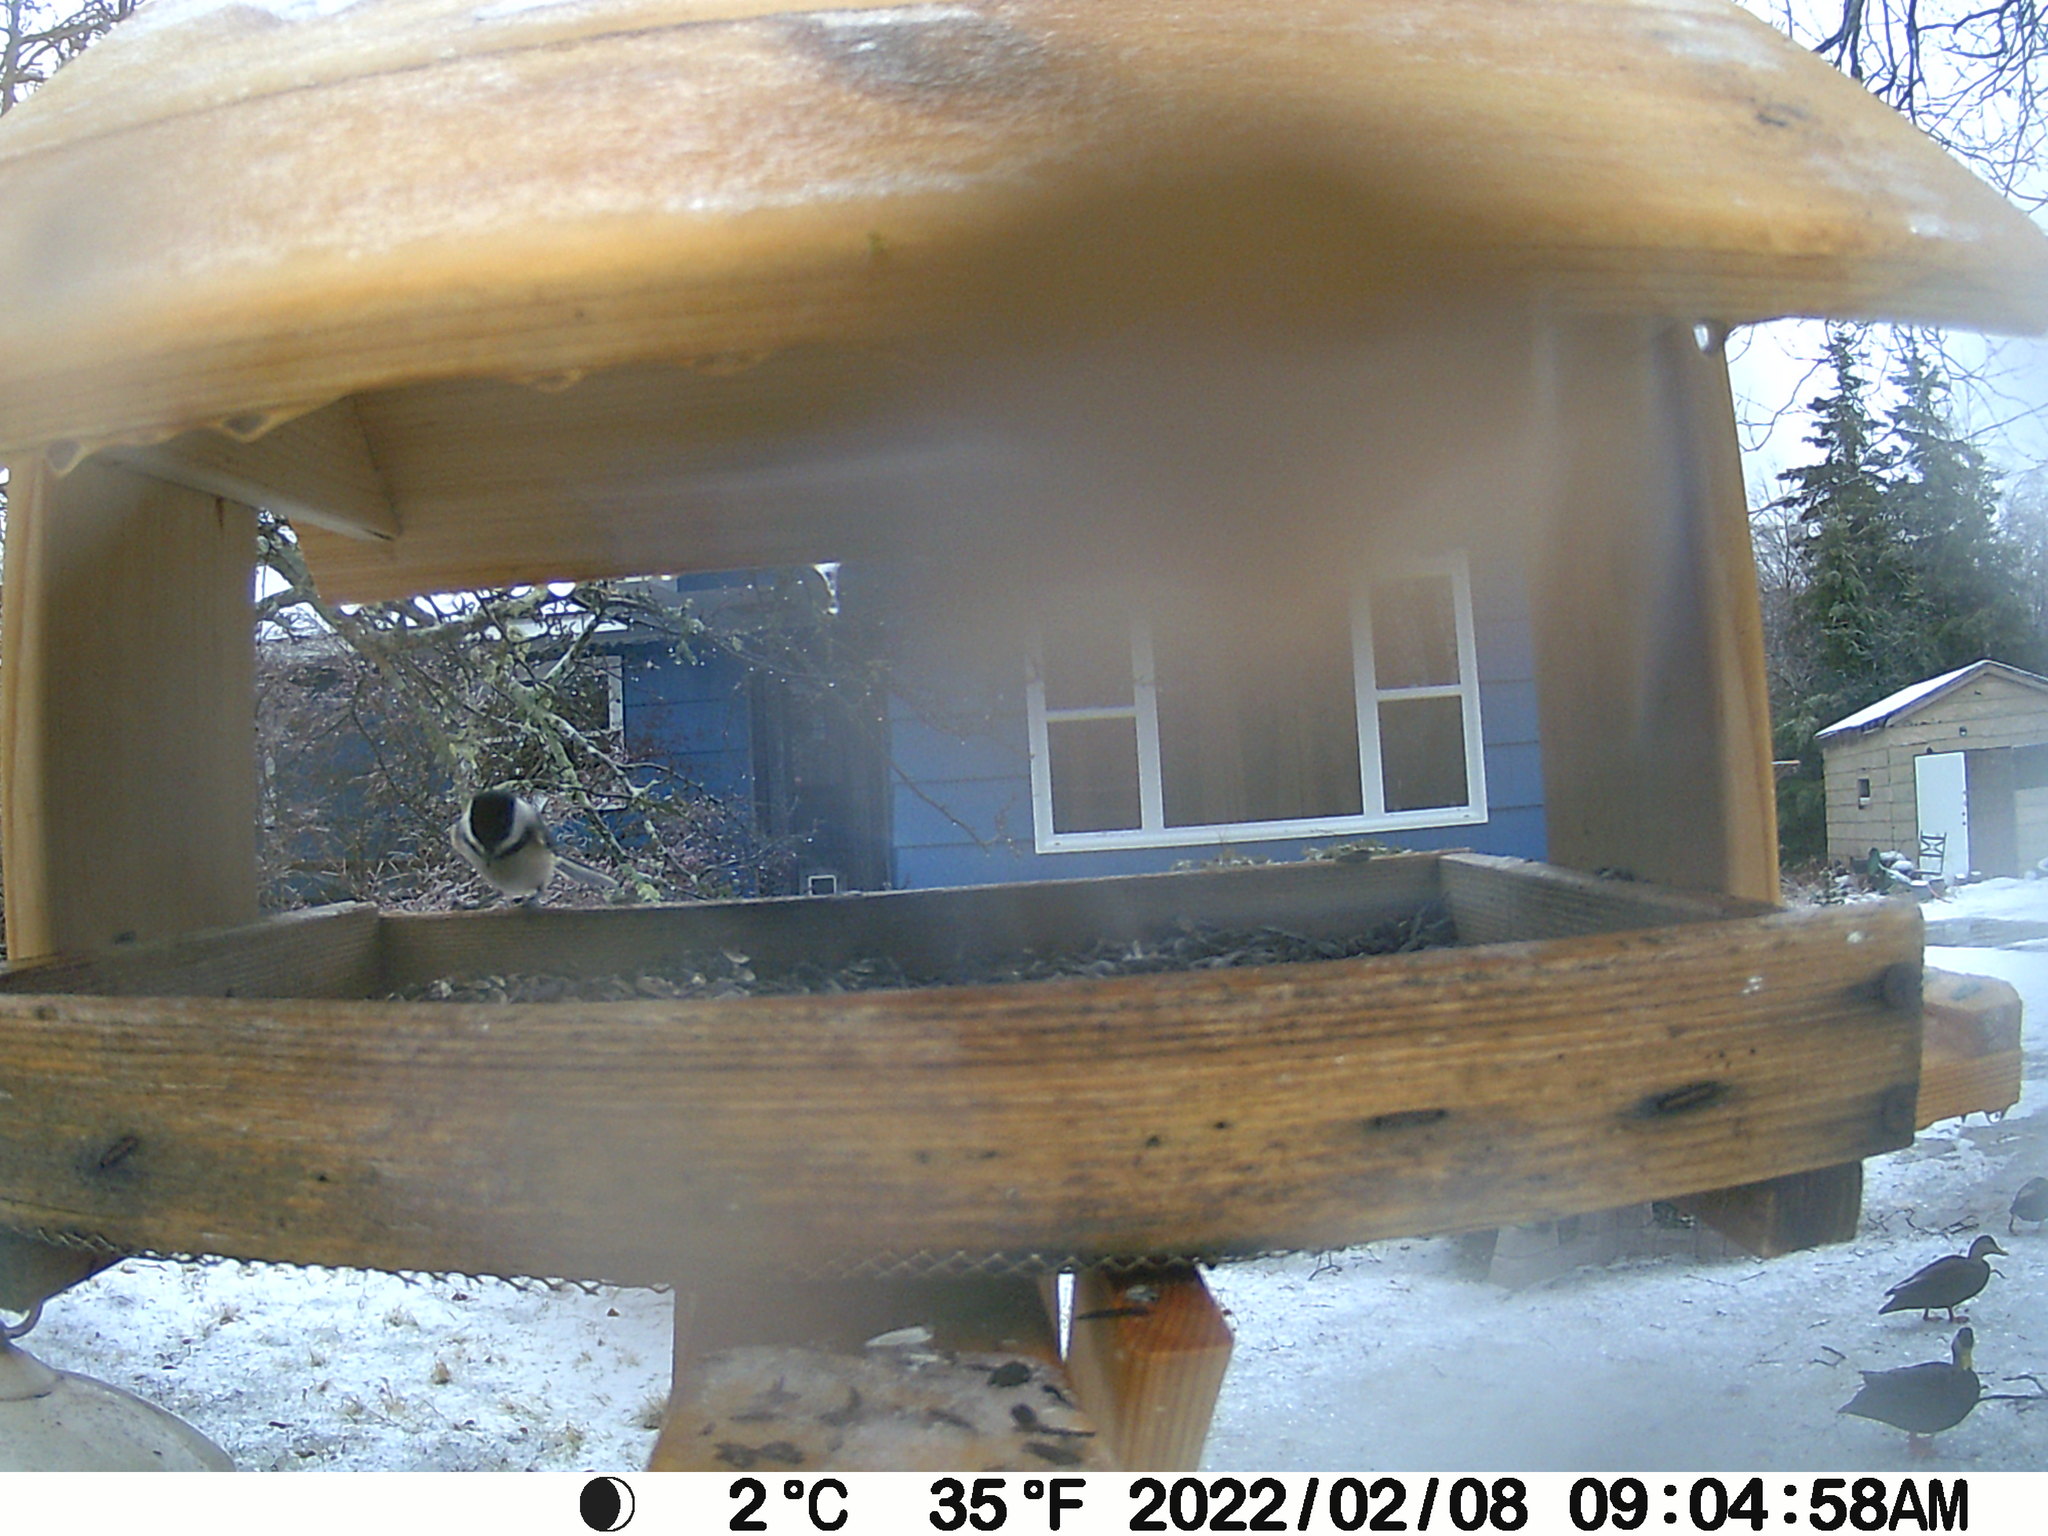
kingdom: Animalia
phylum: Chordata
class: Aves
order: Passeriformes
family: Paridae
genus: Poecile
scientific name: Poecile atricapillus
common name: Black-capped chickadee
